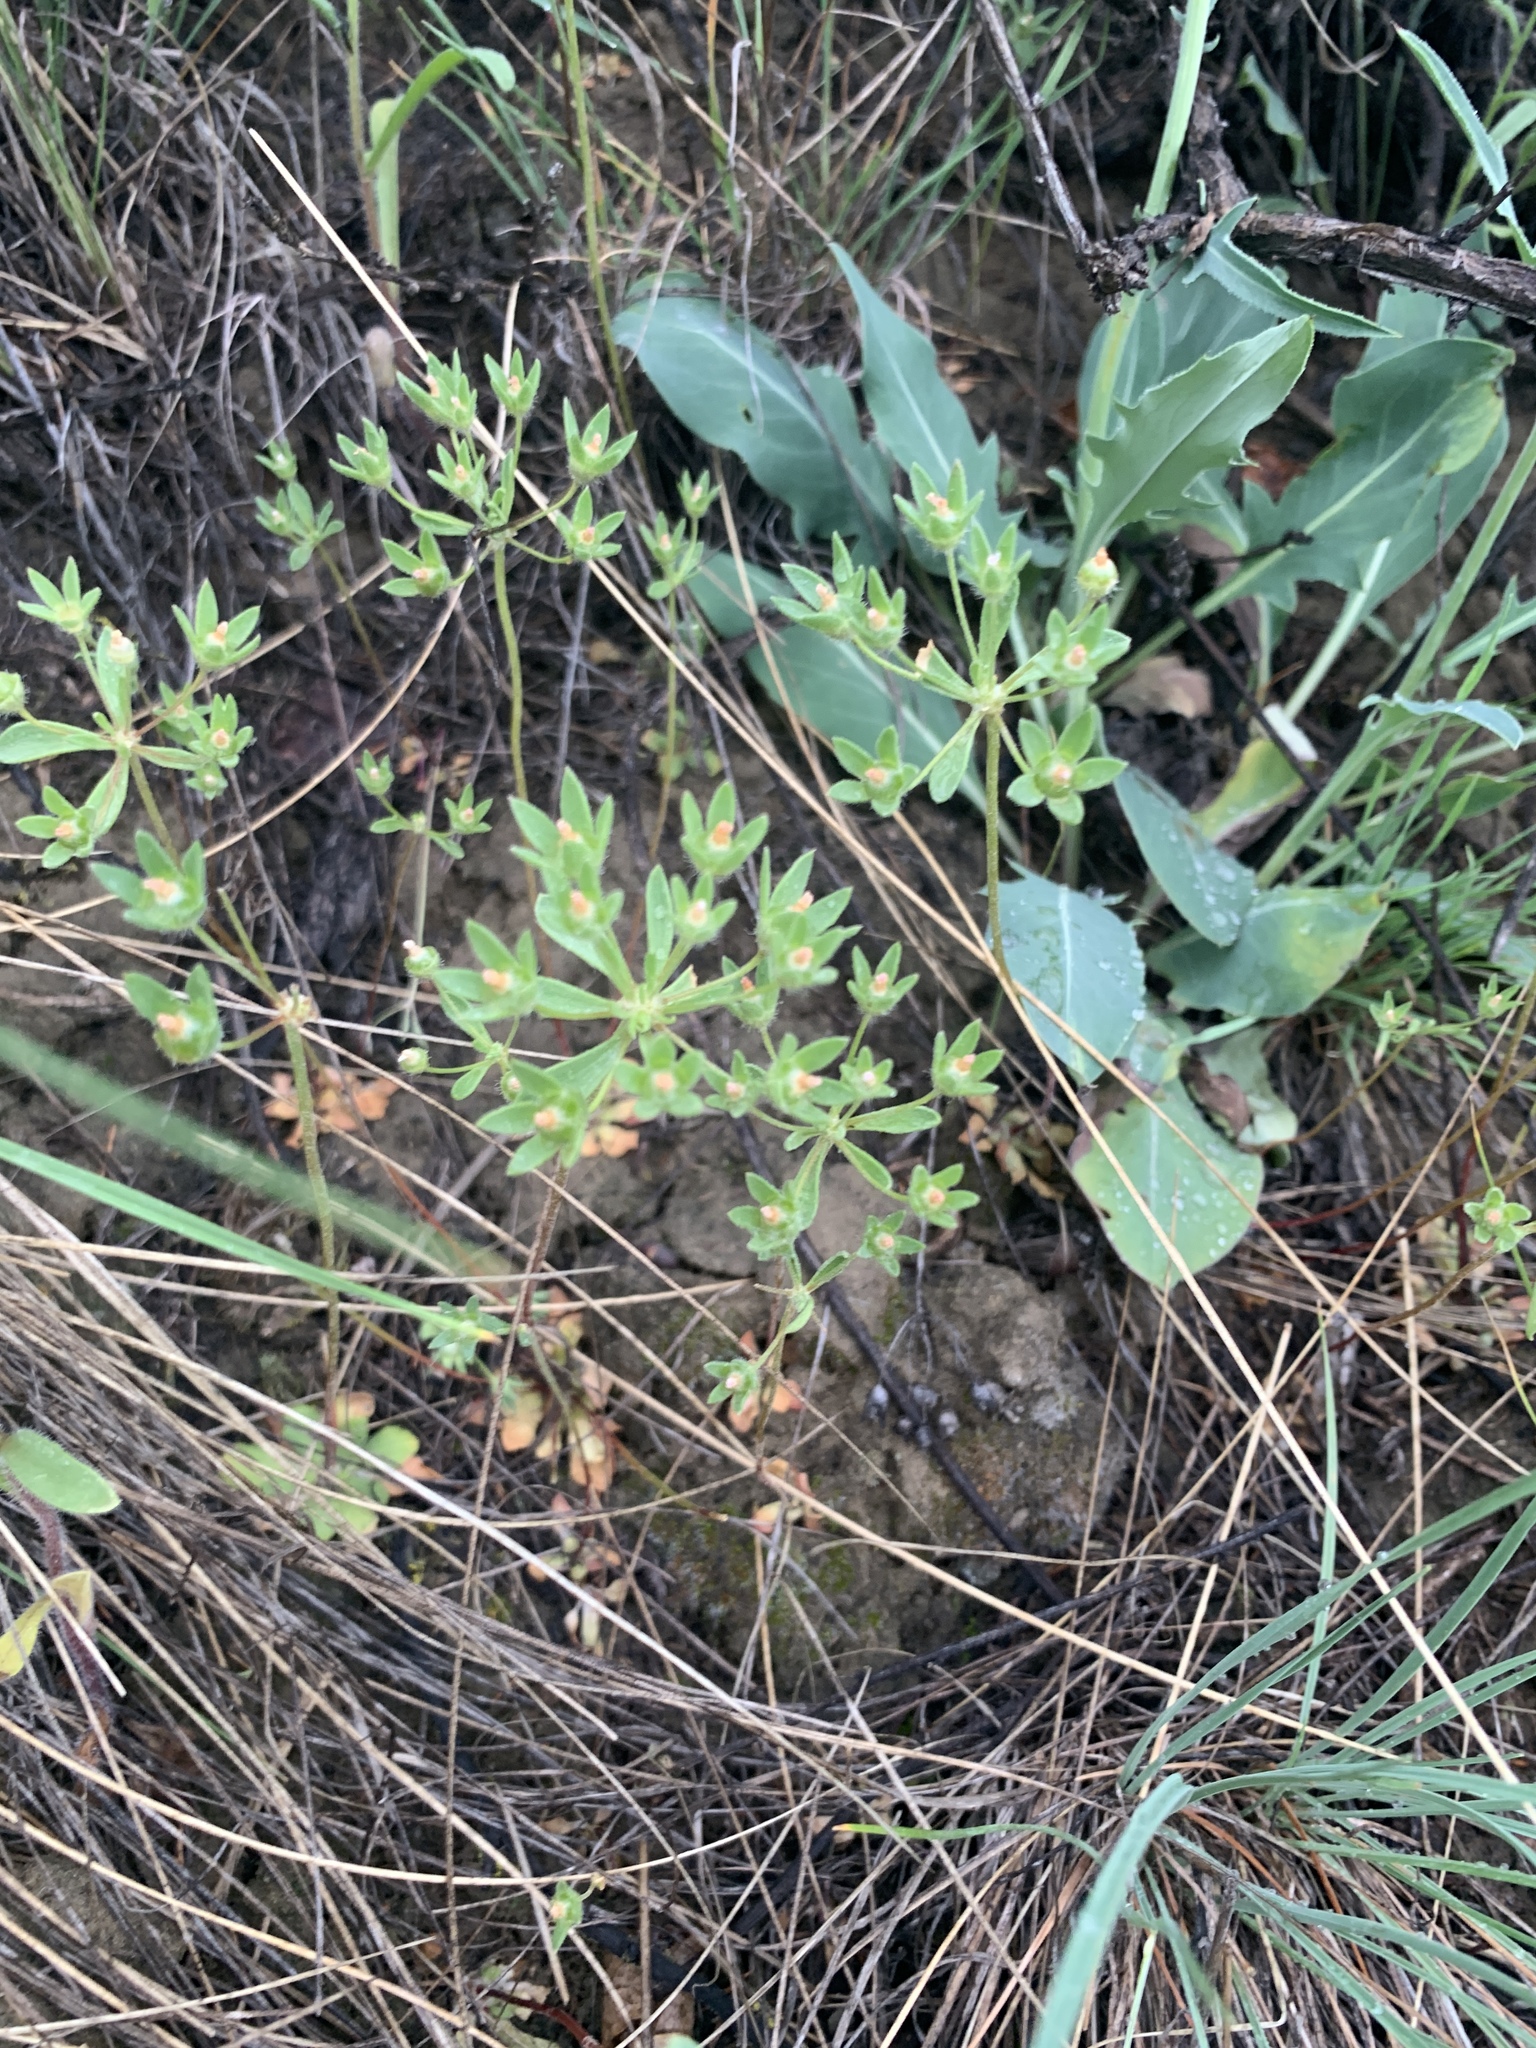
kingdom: Plantae
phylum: Tracheophyta
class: Magnoliopsida
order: Ericales
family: Primulaceae
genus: Androsace
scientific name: Androsace maxima
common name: Annual androsace
